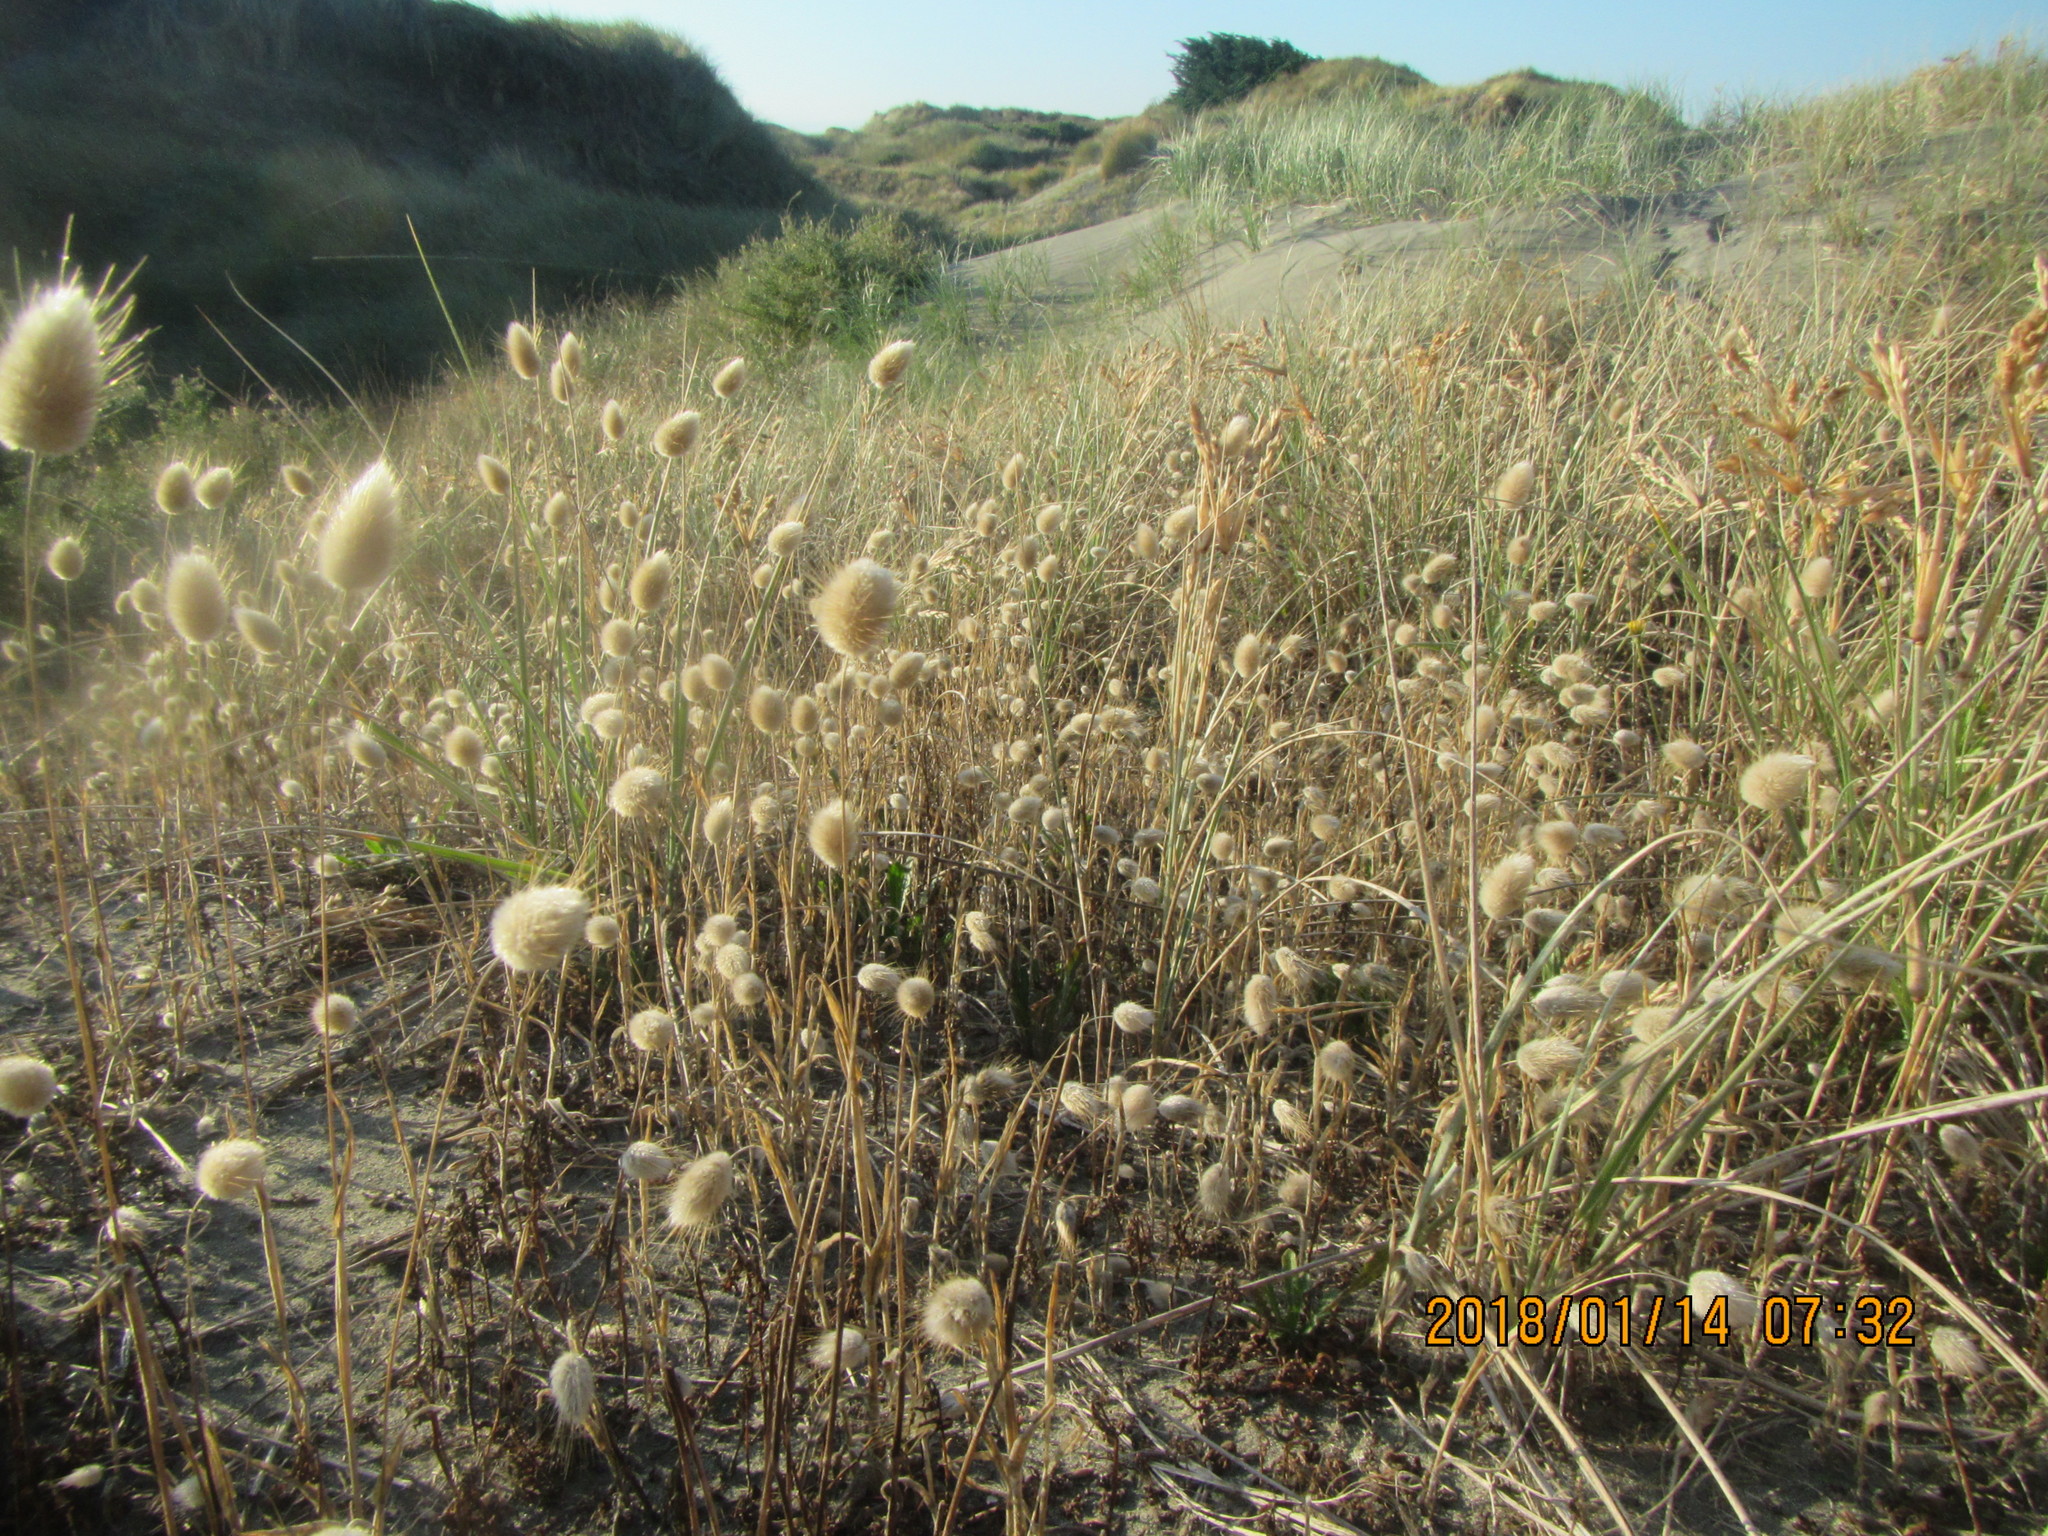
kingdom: Plantae
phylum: Tracheophyta
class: Liliopsida
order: Poales
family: Poaceae
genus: Lagurus
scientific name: Lagurus ovatus
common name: Hare's-tail
